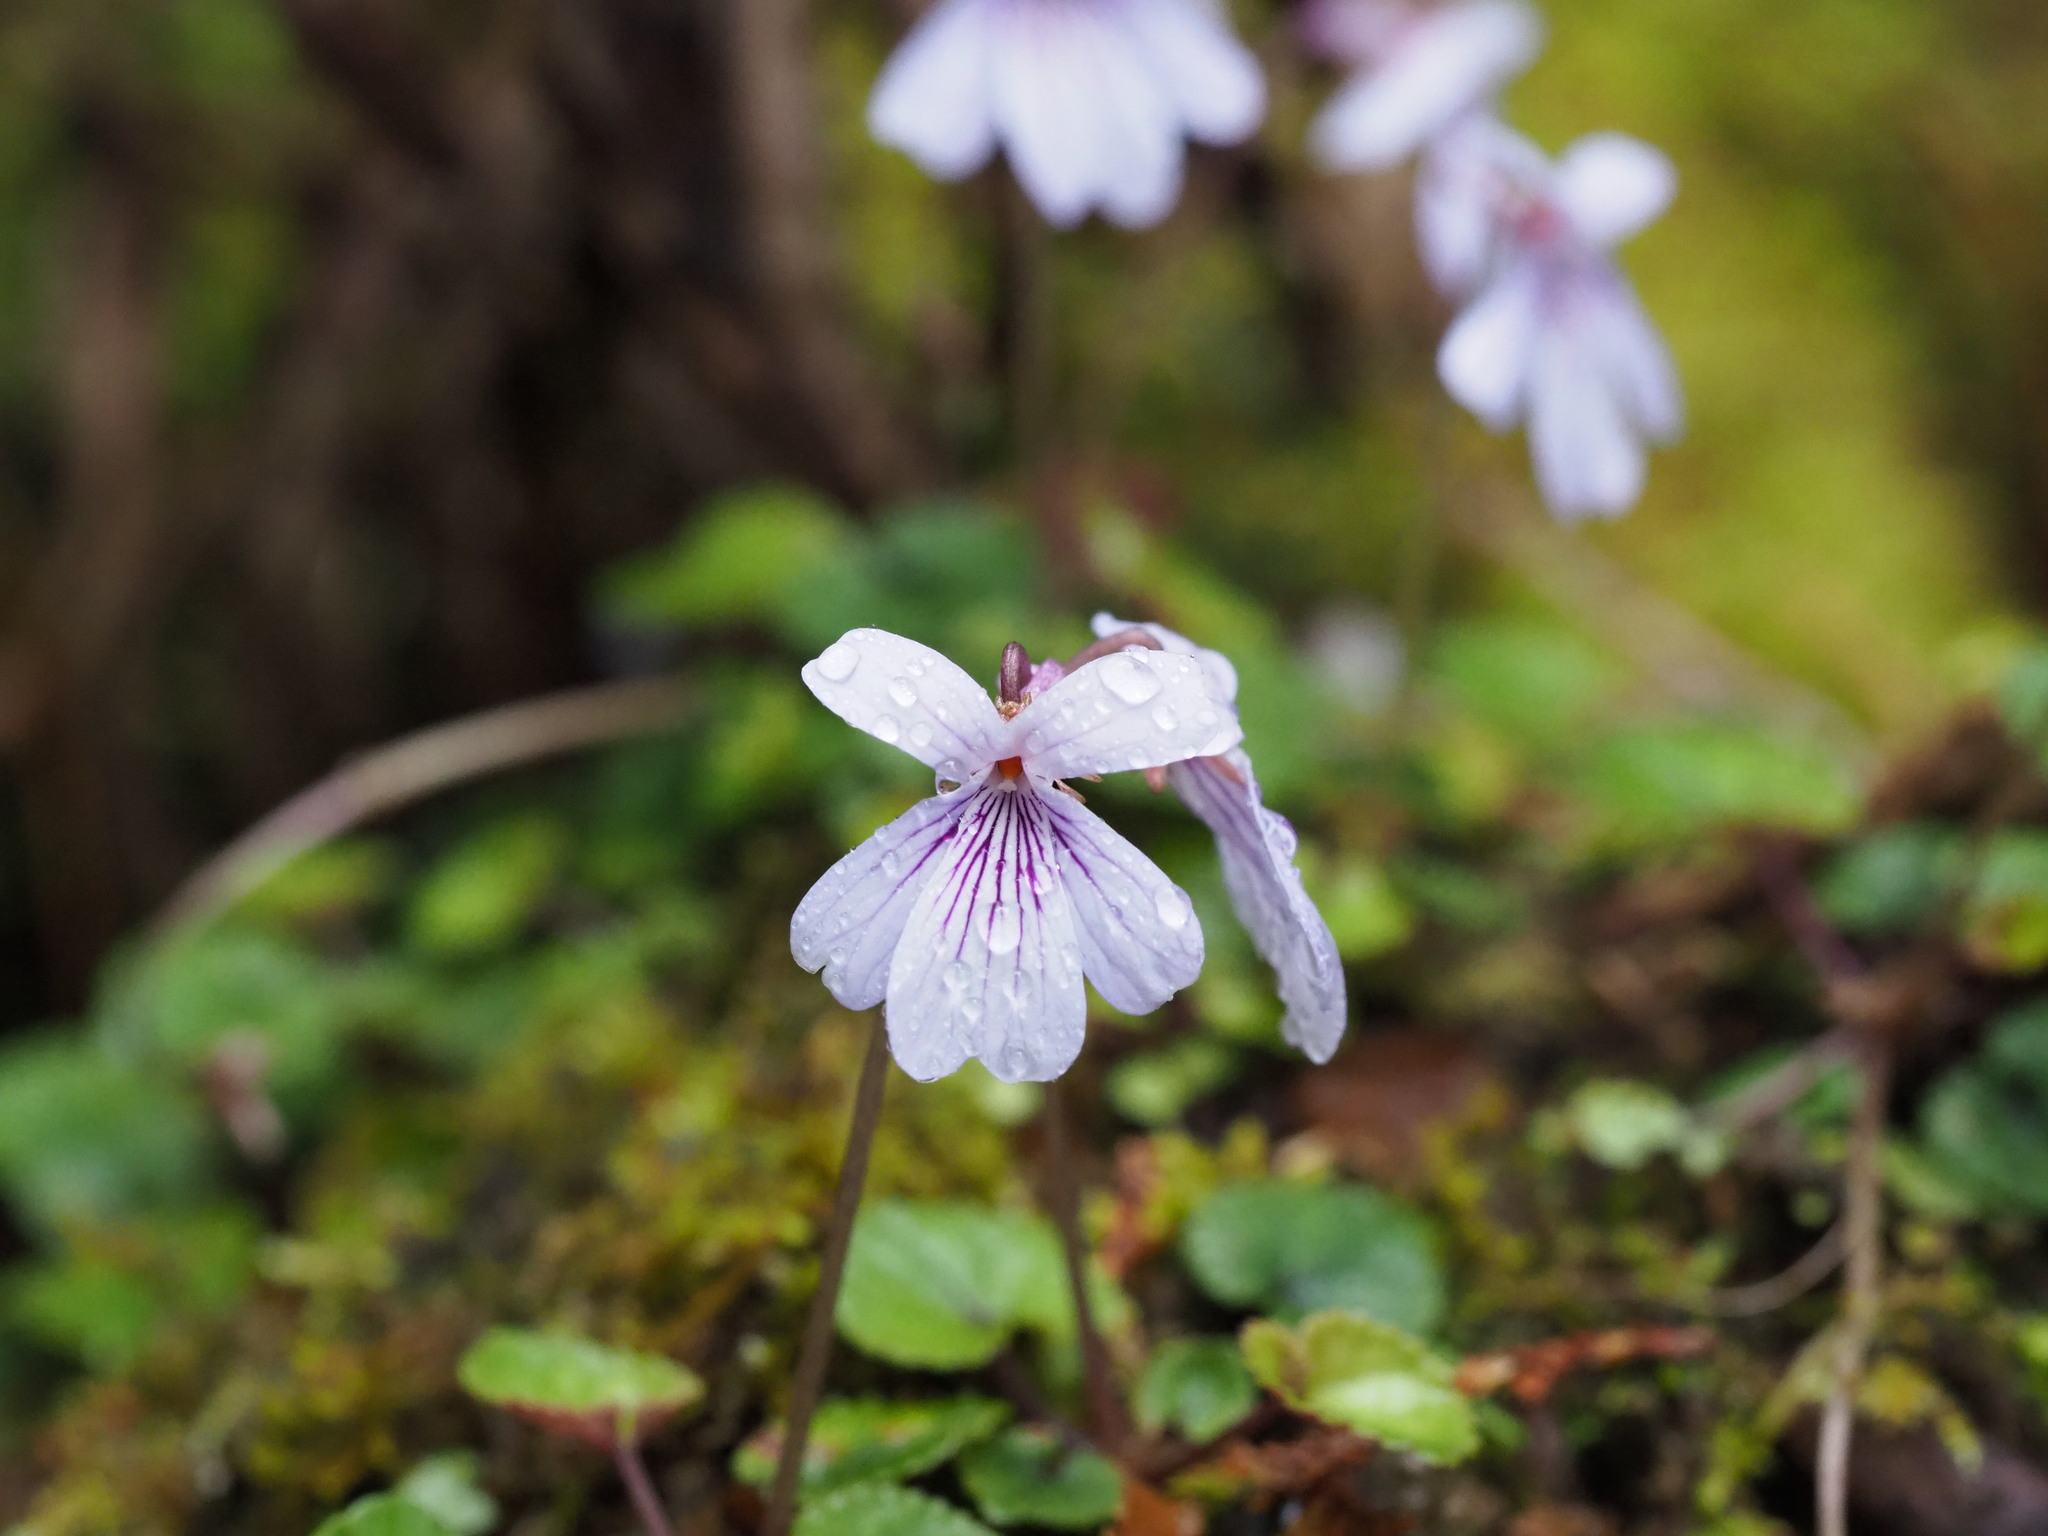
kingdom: Plantae
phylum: Tracheophyta
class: Magnoliopsida
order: Malpighiales
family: Violaceae
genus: Viola
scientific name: Viola formosana
